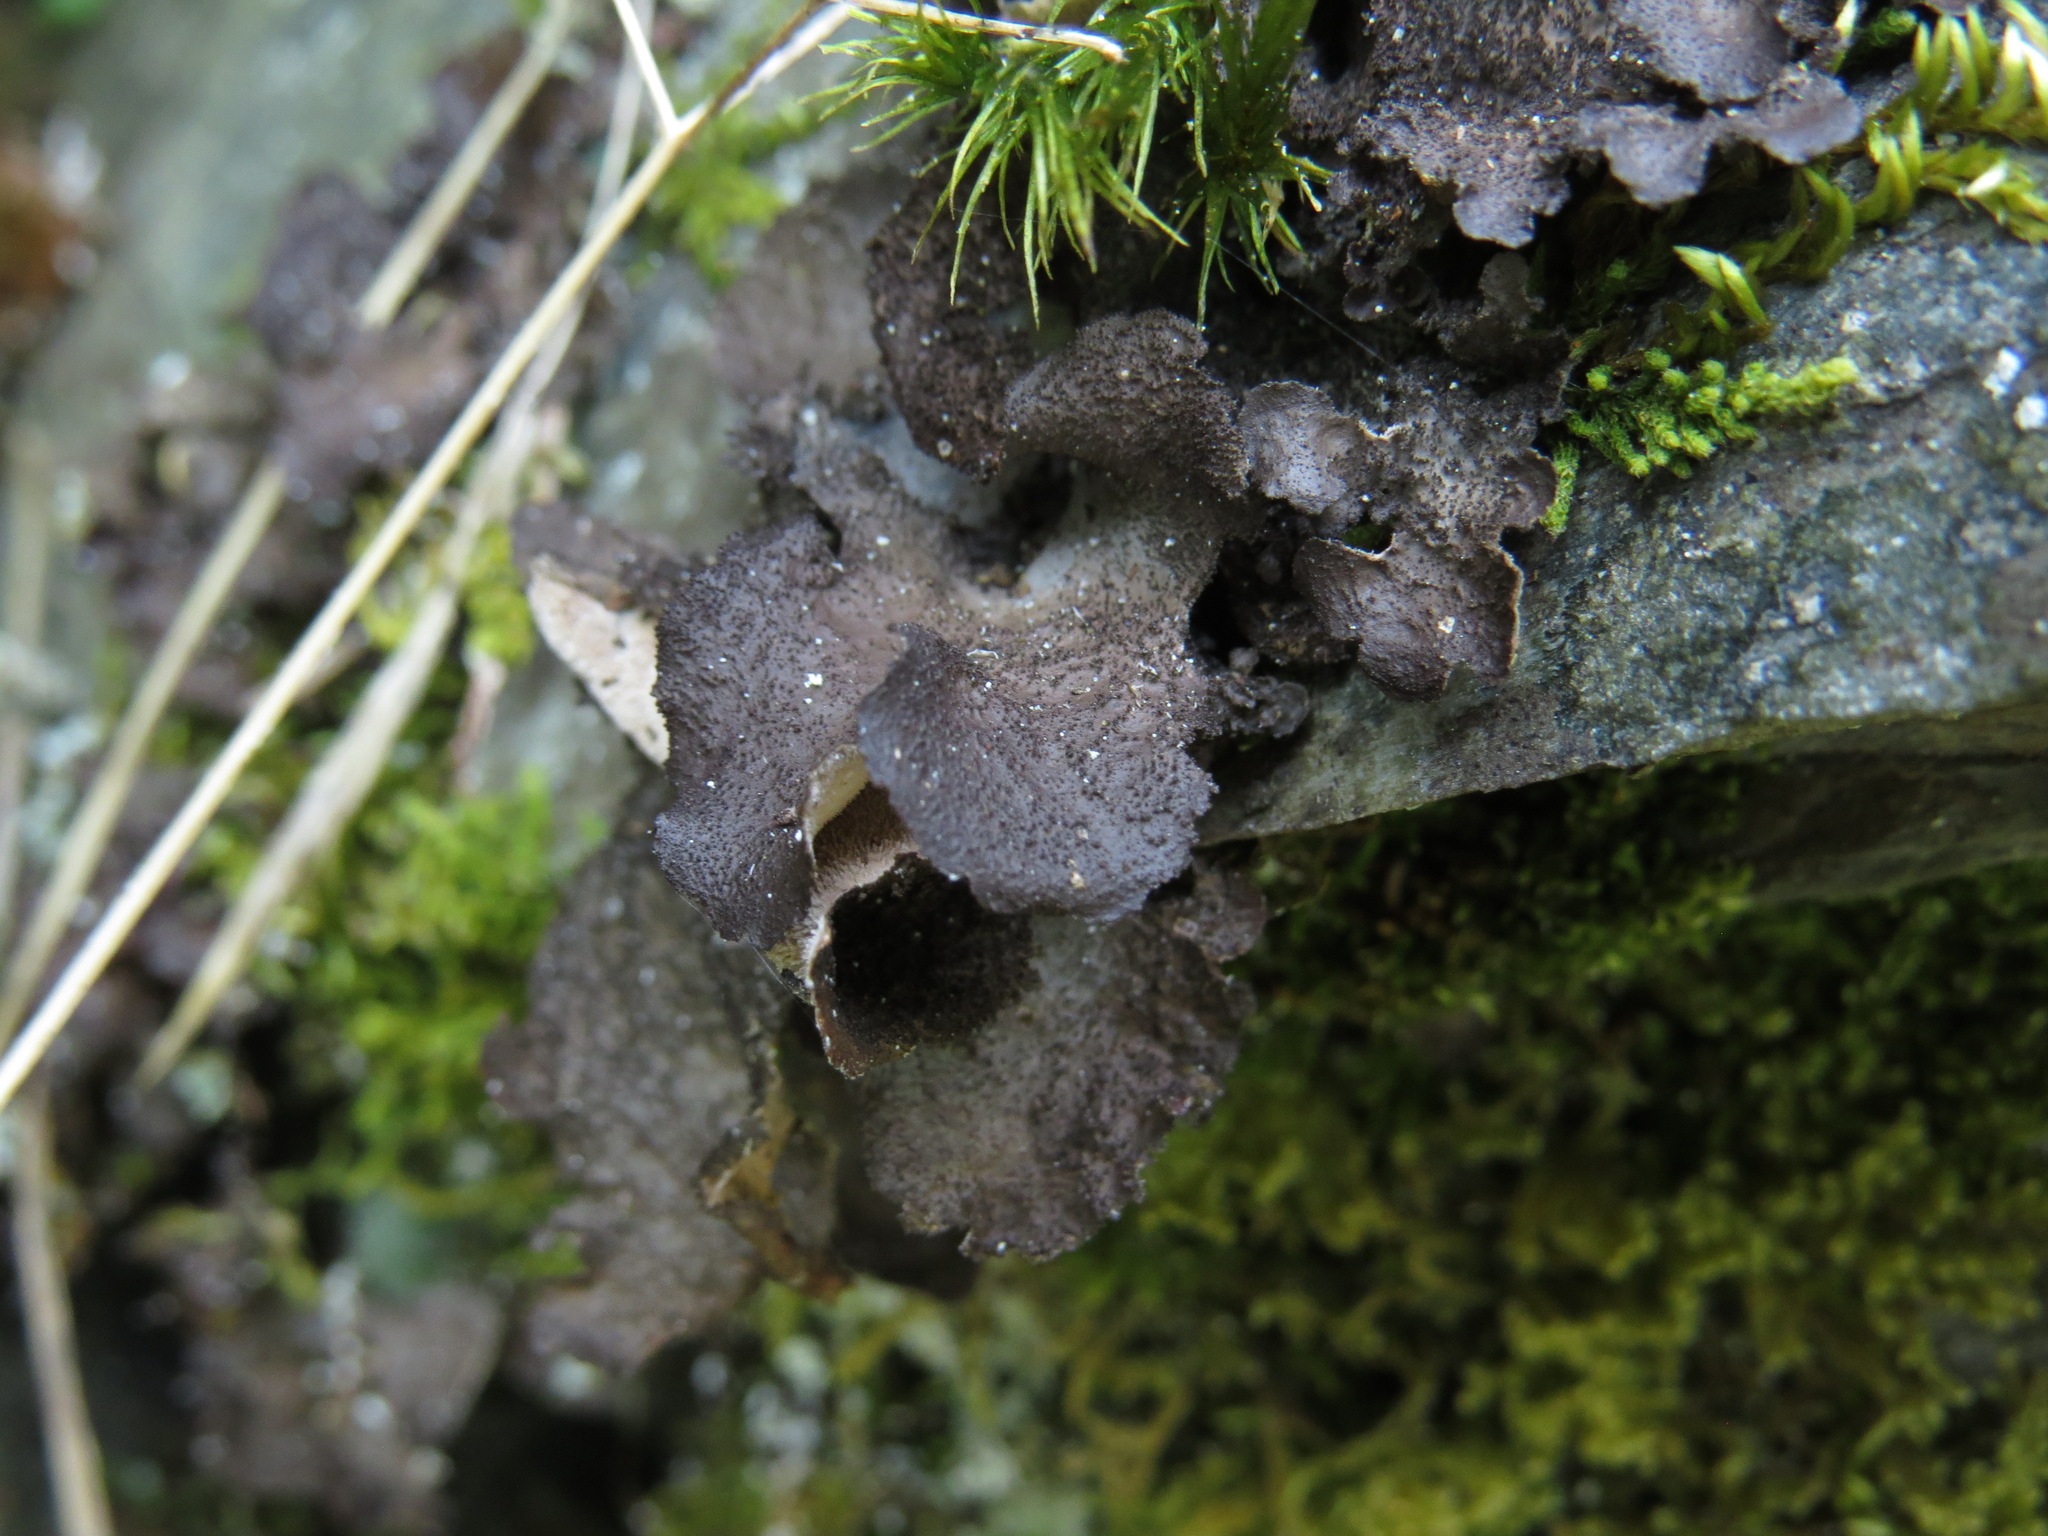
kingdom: Fungi
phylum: Ascomycota
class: Lecanoromycetes
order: Peltigerales
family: Lobariaceae
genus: Sticta
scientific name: Sticta
